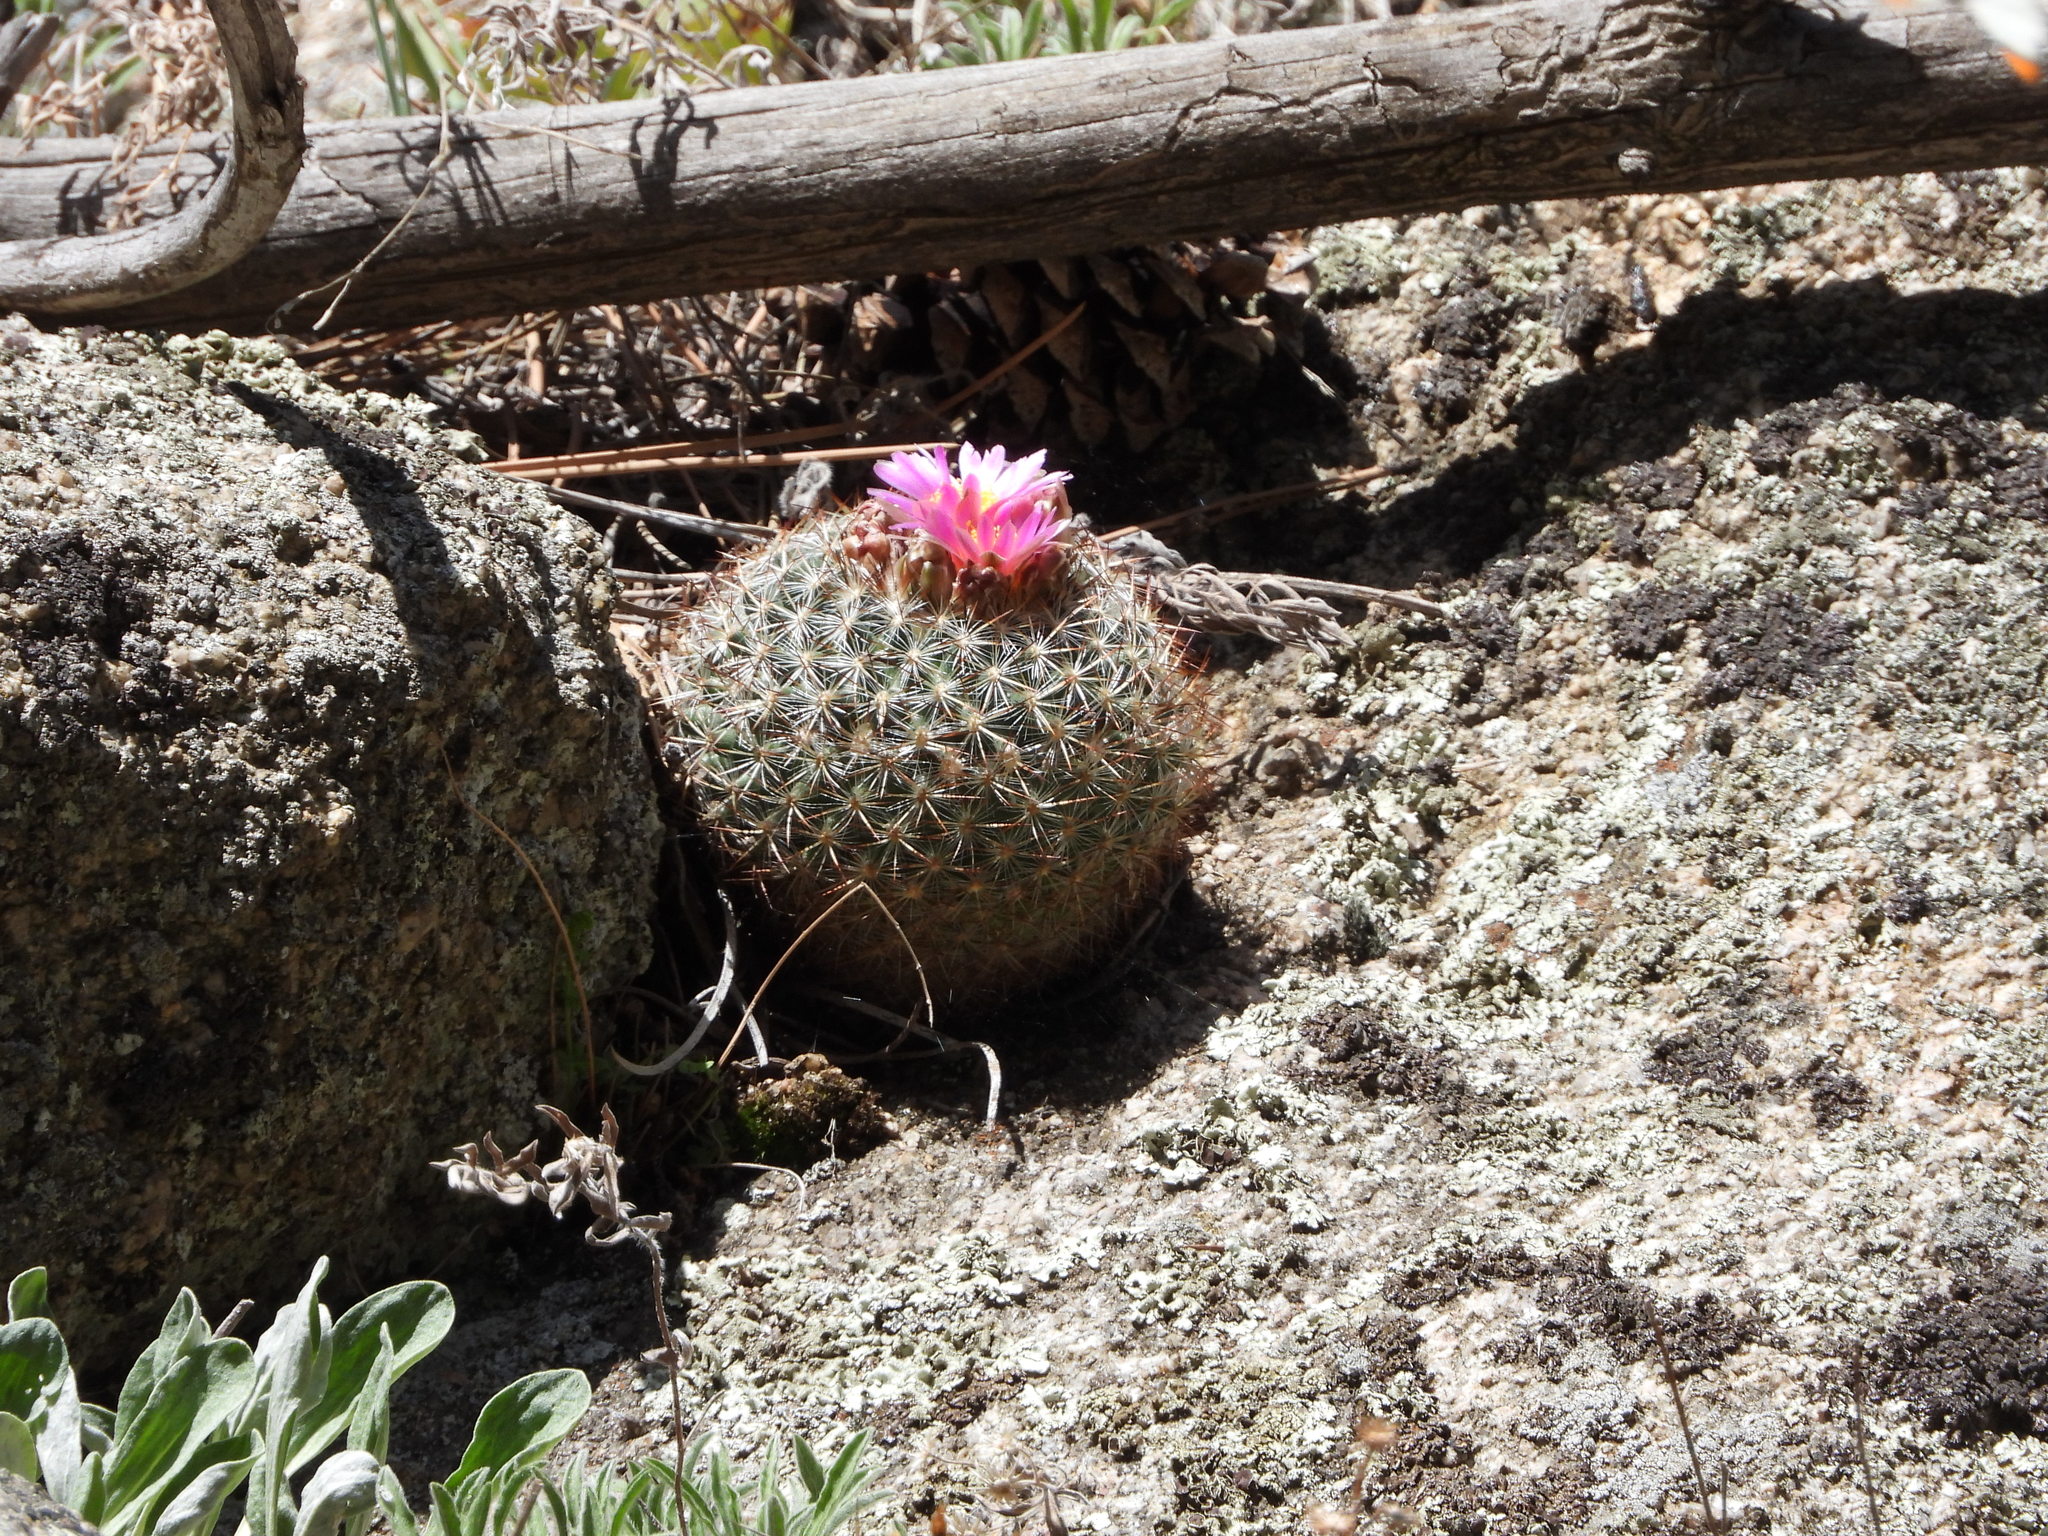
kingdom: Plantae
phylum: Tracheophyta
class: Magnoliopsida
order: Caryophyllales
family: Cactaceae
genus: Pediocactus
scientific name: Pediocactus simpsonii
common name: Simpson's hedgehog cactus
